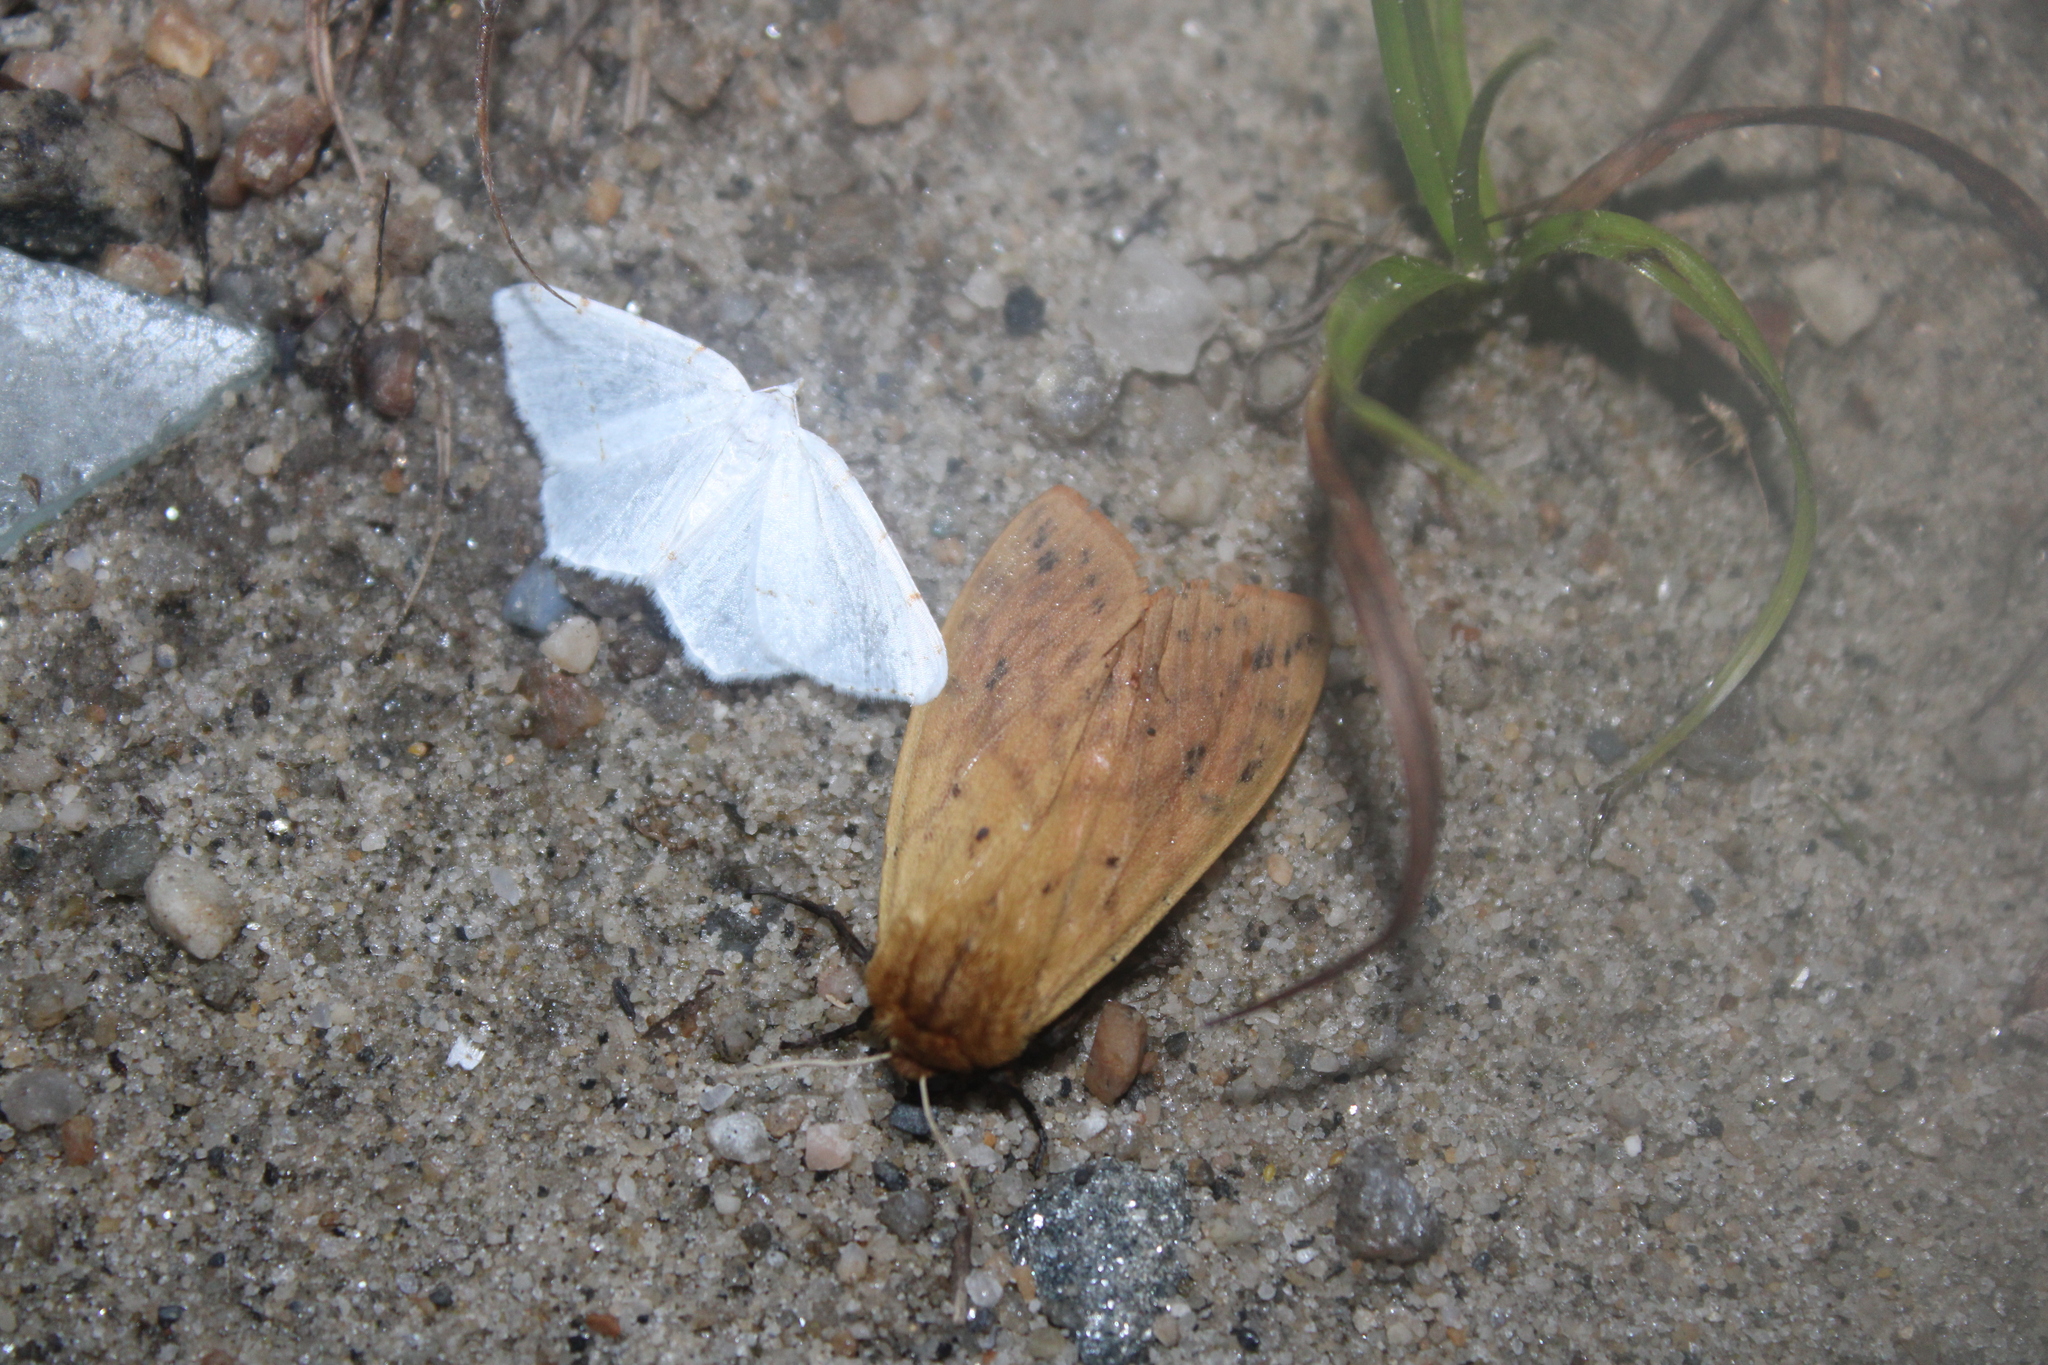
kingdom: Animalia
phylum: Arthropoda
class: Insecta
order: Lepidoptera
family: Erebidae
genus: Pyrrharctia
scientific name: Pyrrharctia isabella
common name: Isabella tiger moth
